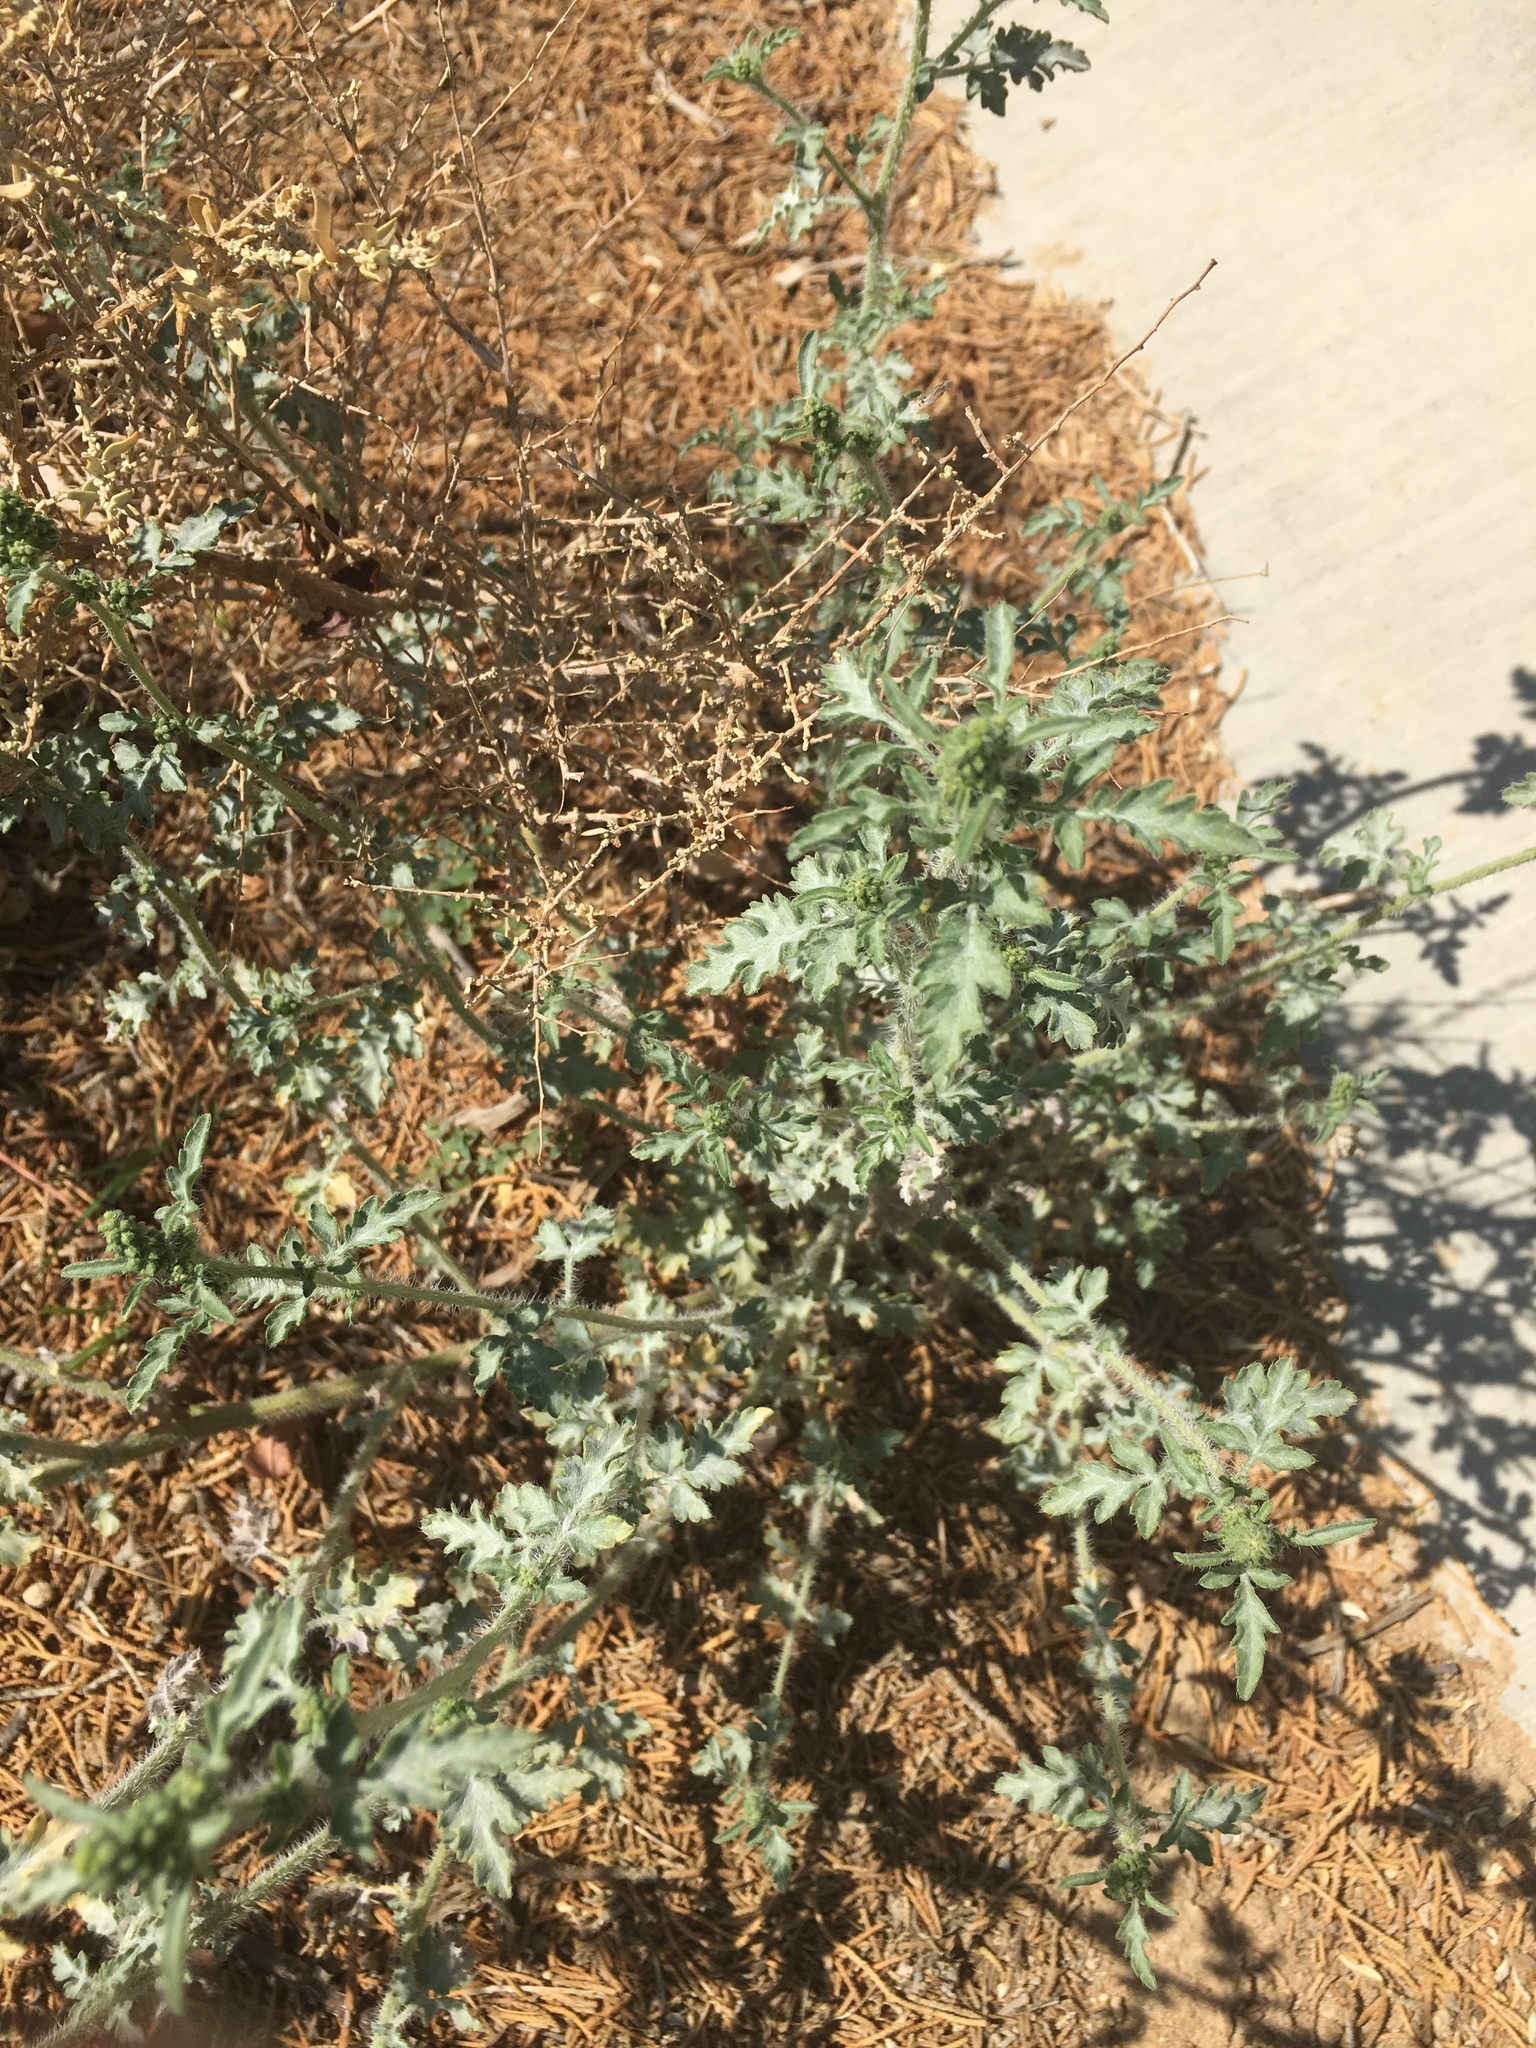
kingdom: Plantae
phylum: Tracheophyta
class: Magnoliopsida
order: Asterales
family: Asteraceae
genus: Ambrosia
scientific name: Ambrosia acanthicarpa
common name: Hooker's bur ragweed
